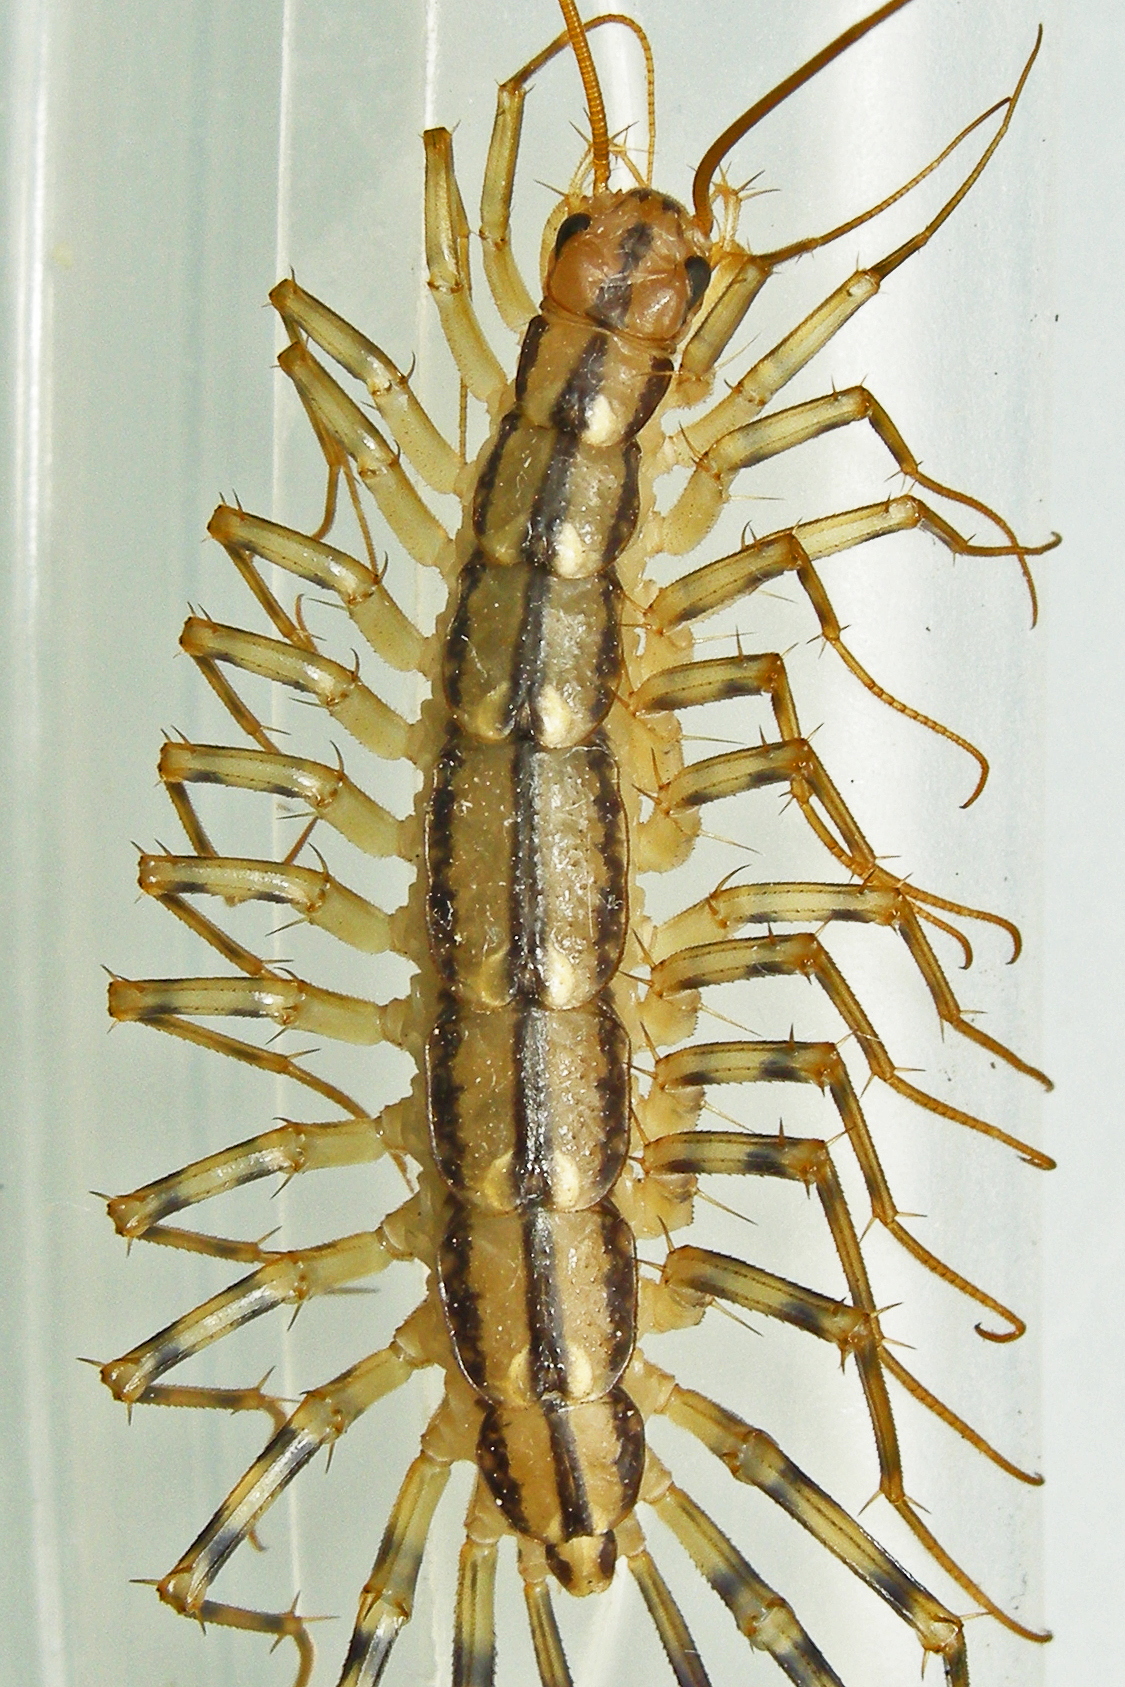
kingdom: Animalia
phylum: Arthropoda
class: Chilopoda
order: Scutigeromorpha
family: Scutigeridae
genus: Scutigera
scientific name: Scutigera coleoptrata
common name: House centipede
